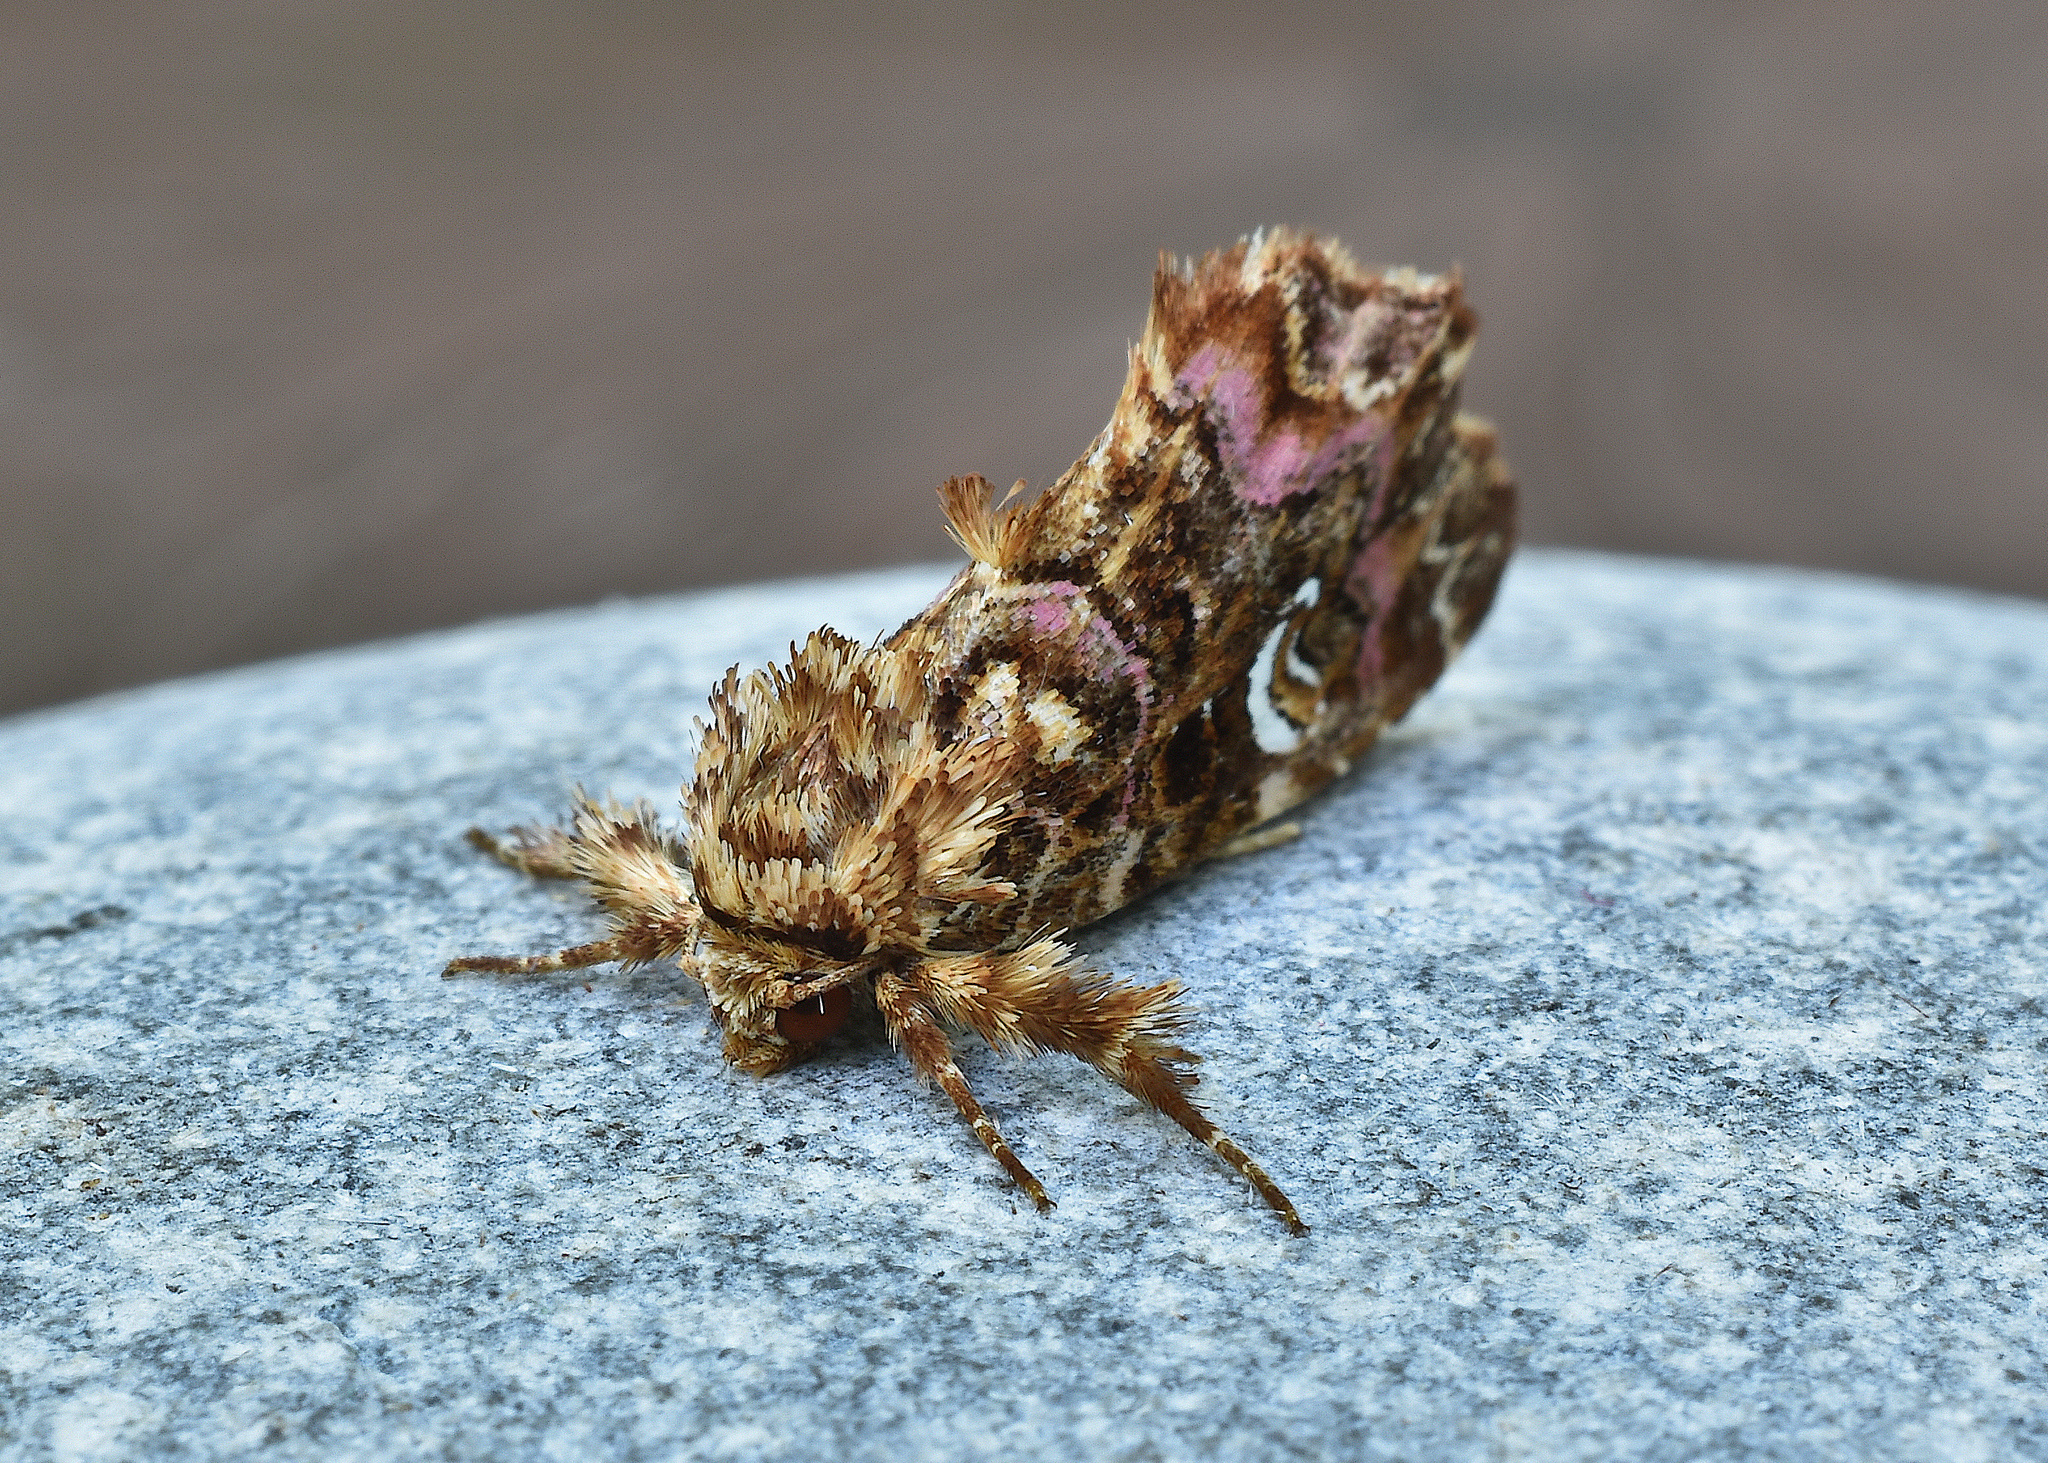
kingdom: Animalia
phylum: Arthropoda
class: Insecta
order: Lepidoptera
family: Noctuidae
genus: Callopistria
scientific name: Callopistria mollissima
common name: Pink-shaded fern moth
